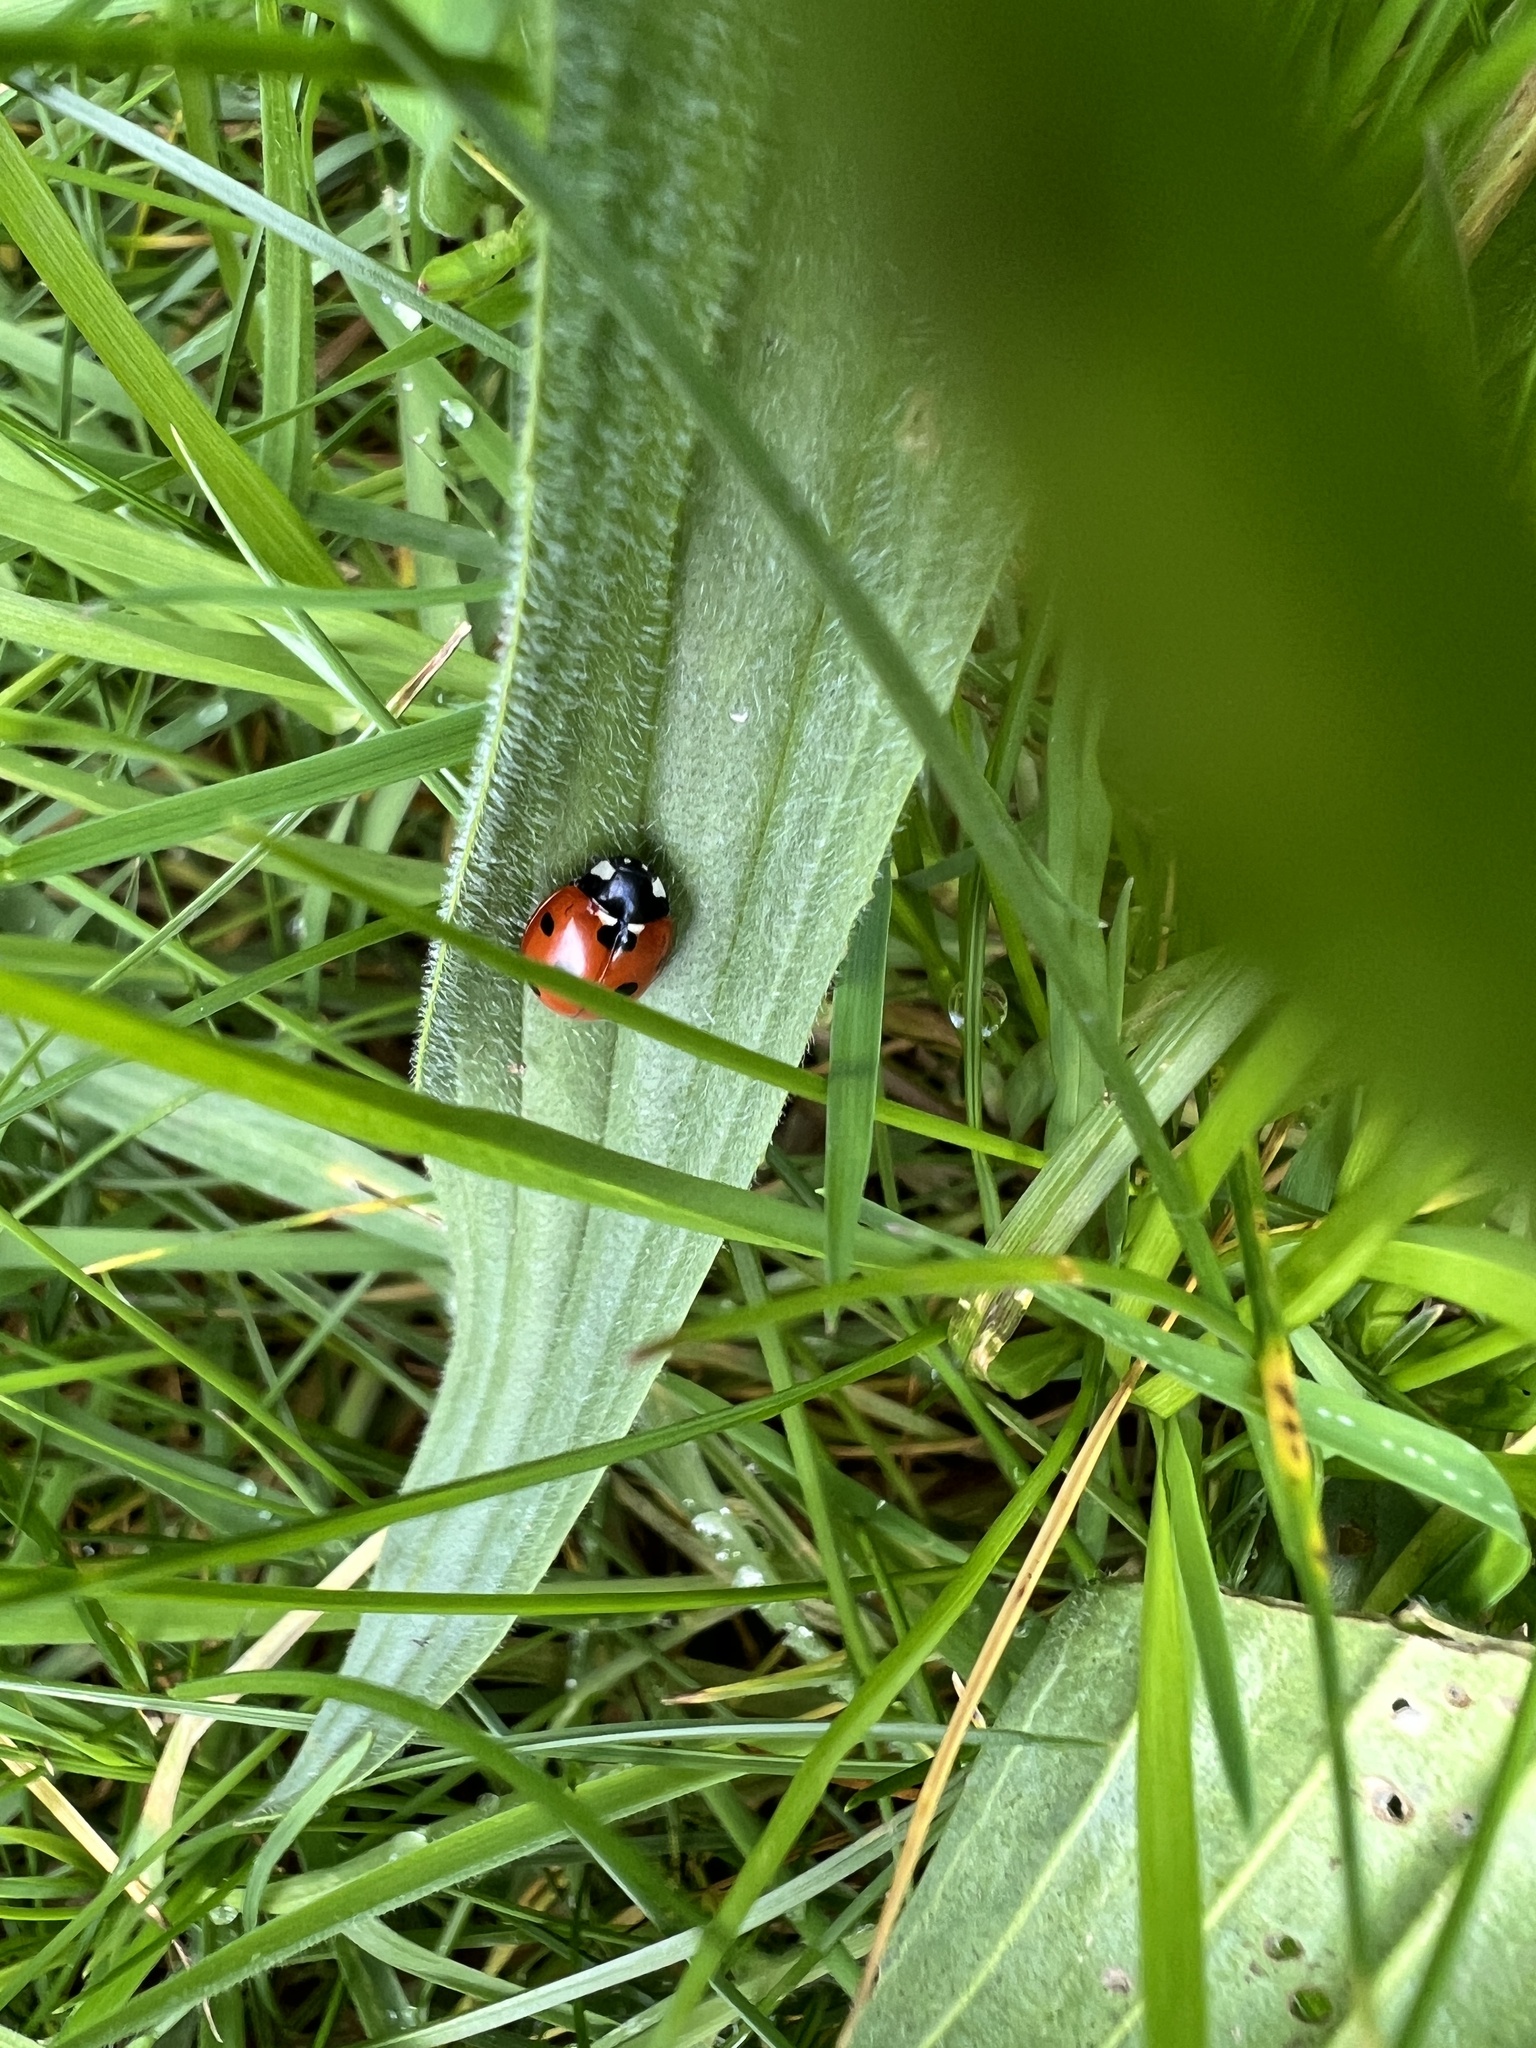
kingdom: Animalia
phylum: Arthropoda
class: Insecta
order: Coleoptera
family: Coccinellidae
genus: Coccinella
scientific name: Coccinella septempunctata
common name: Sevenspotted lady beetle
